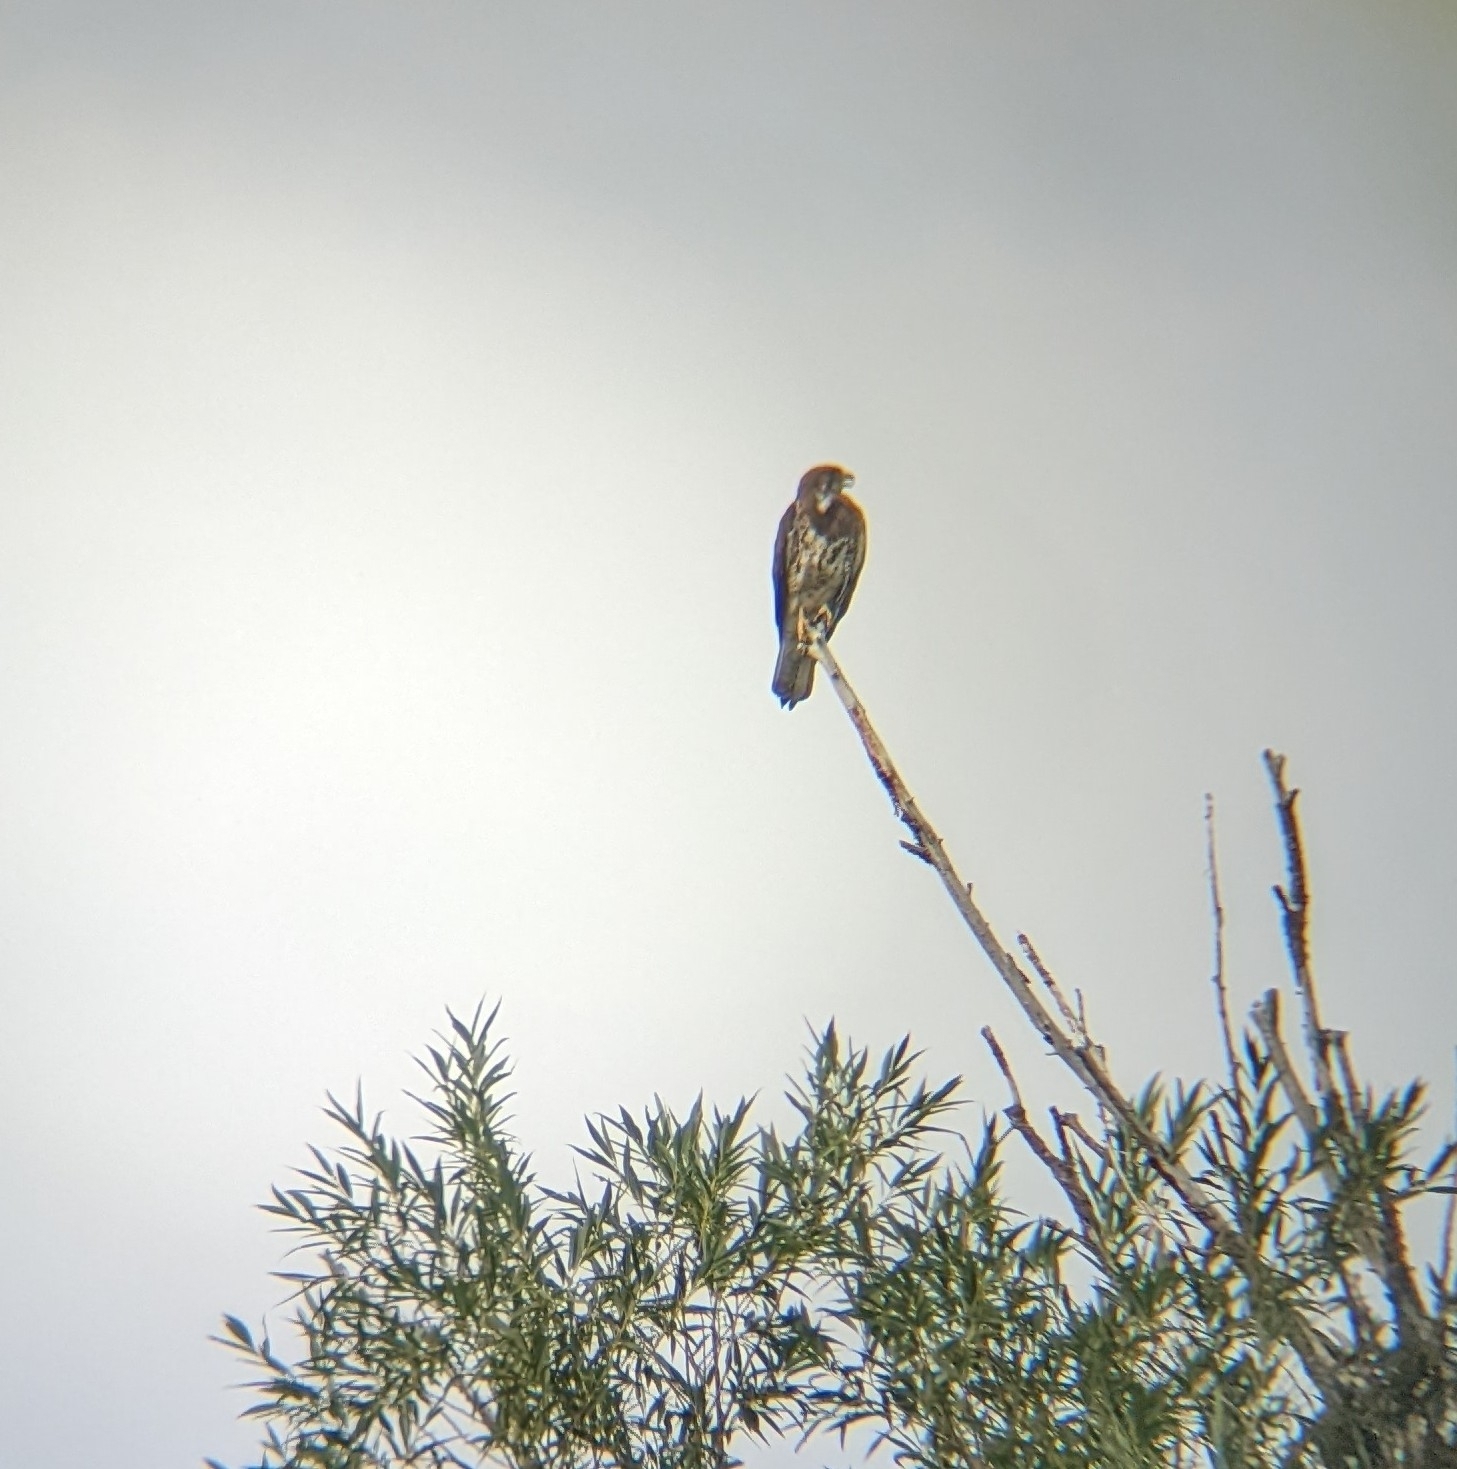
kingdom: Animalia
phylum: Chordata
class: Aves
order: Accipitriformes
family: Accipitridae
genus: Buteo
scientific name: Buteo swainsoni
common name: Swainson's hawk
